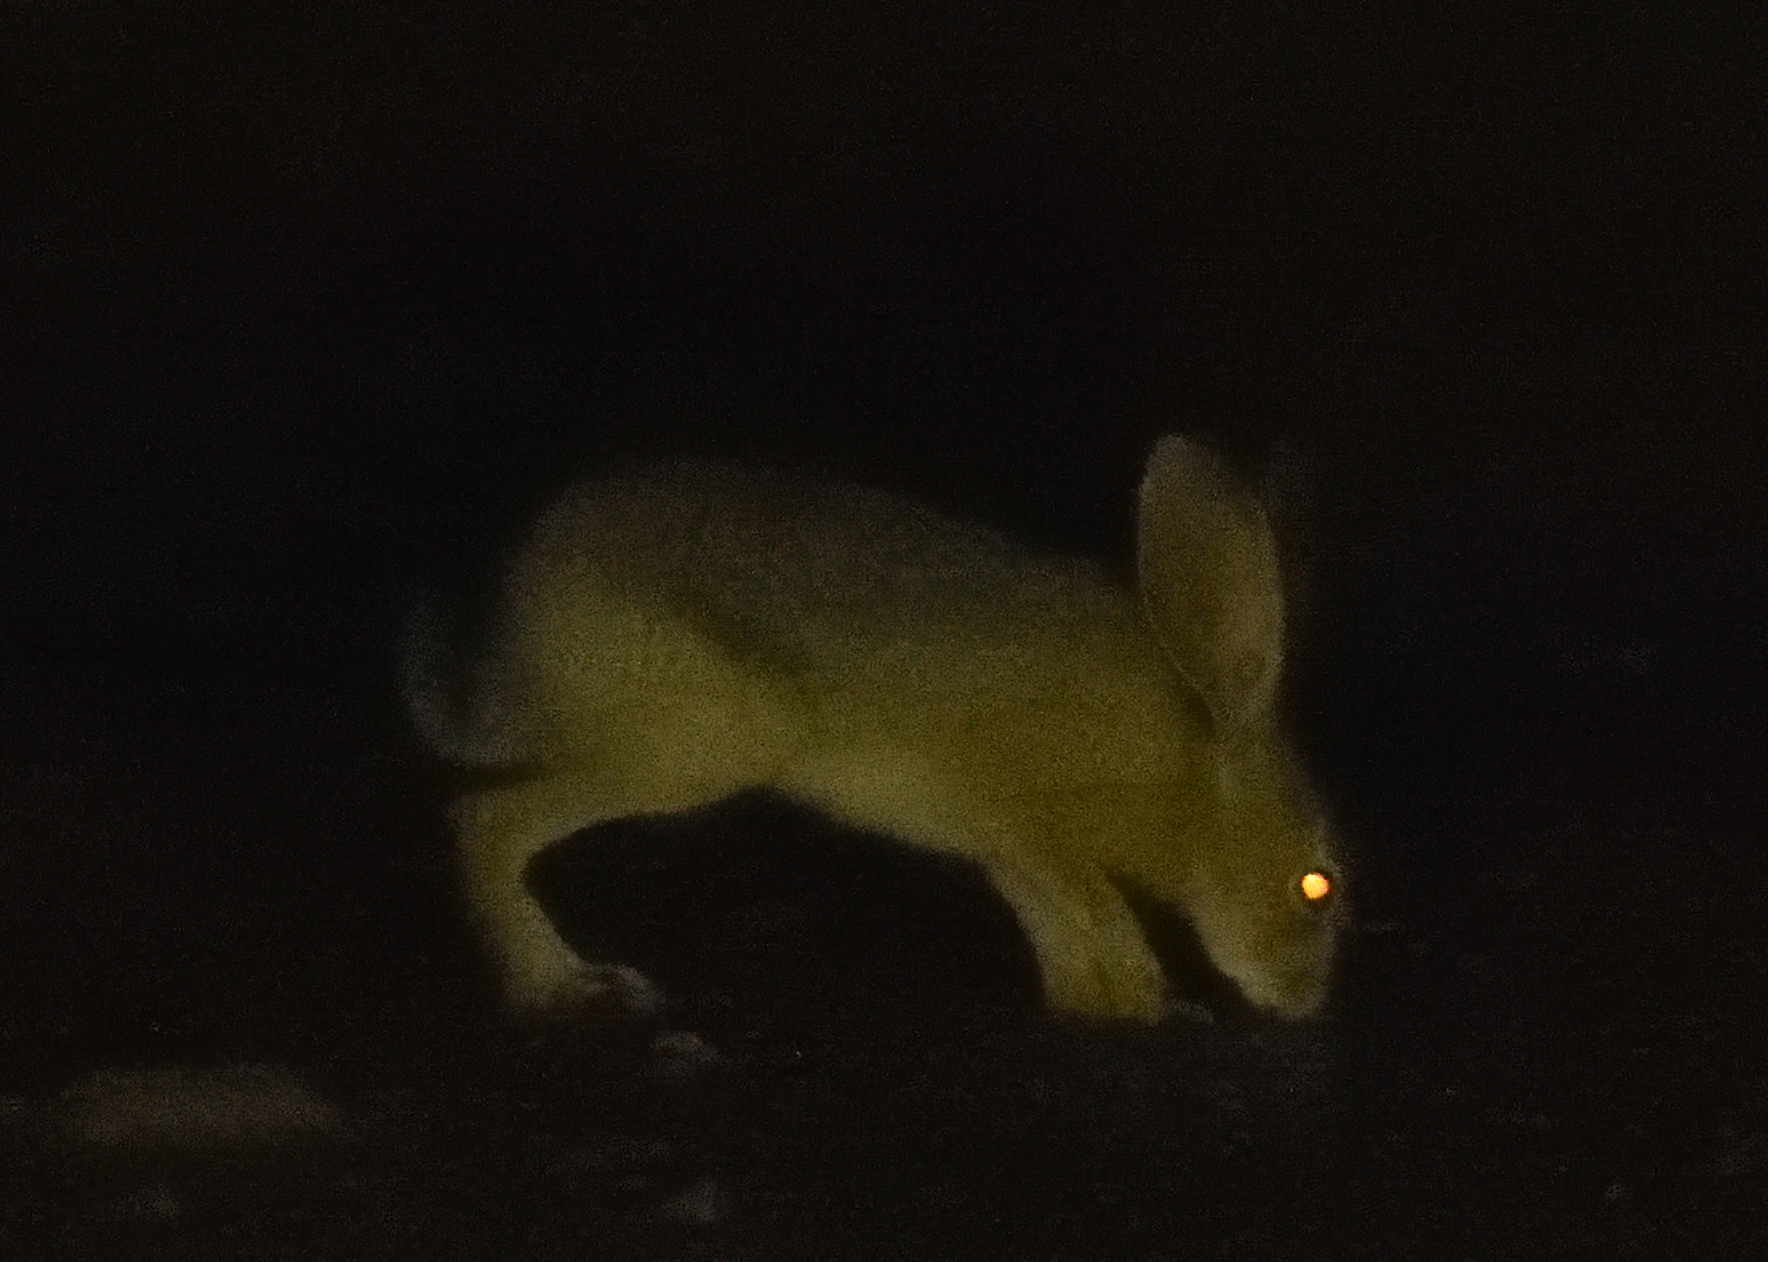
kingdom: Animalia
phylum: Chordata
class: Mammalia
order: Lagomorpha
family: Leporidae
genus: Lepus
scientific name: Lepus californicus
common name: Black-tailed jackrabbit
